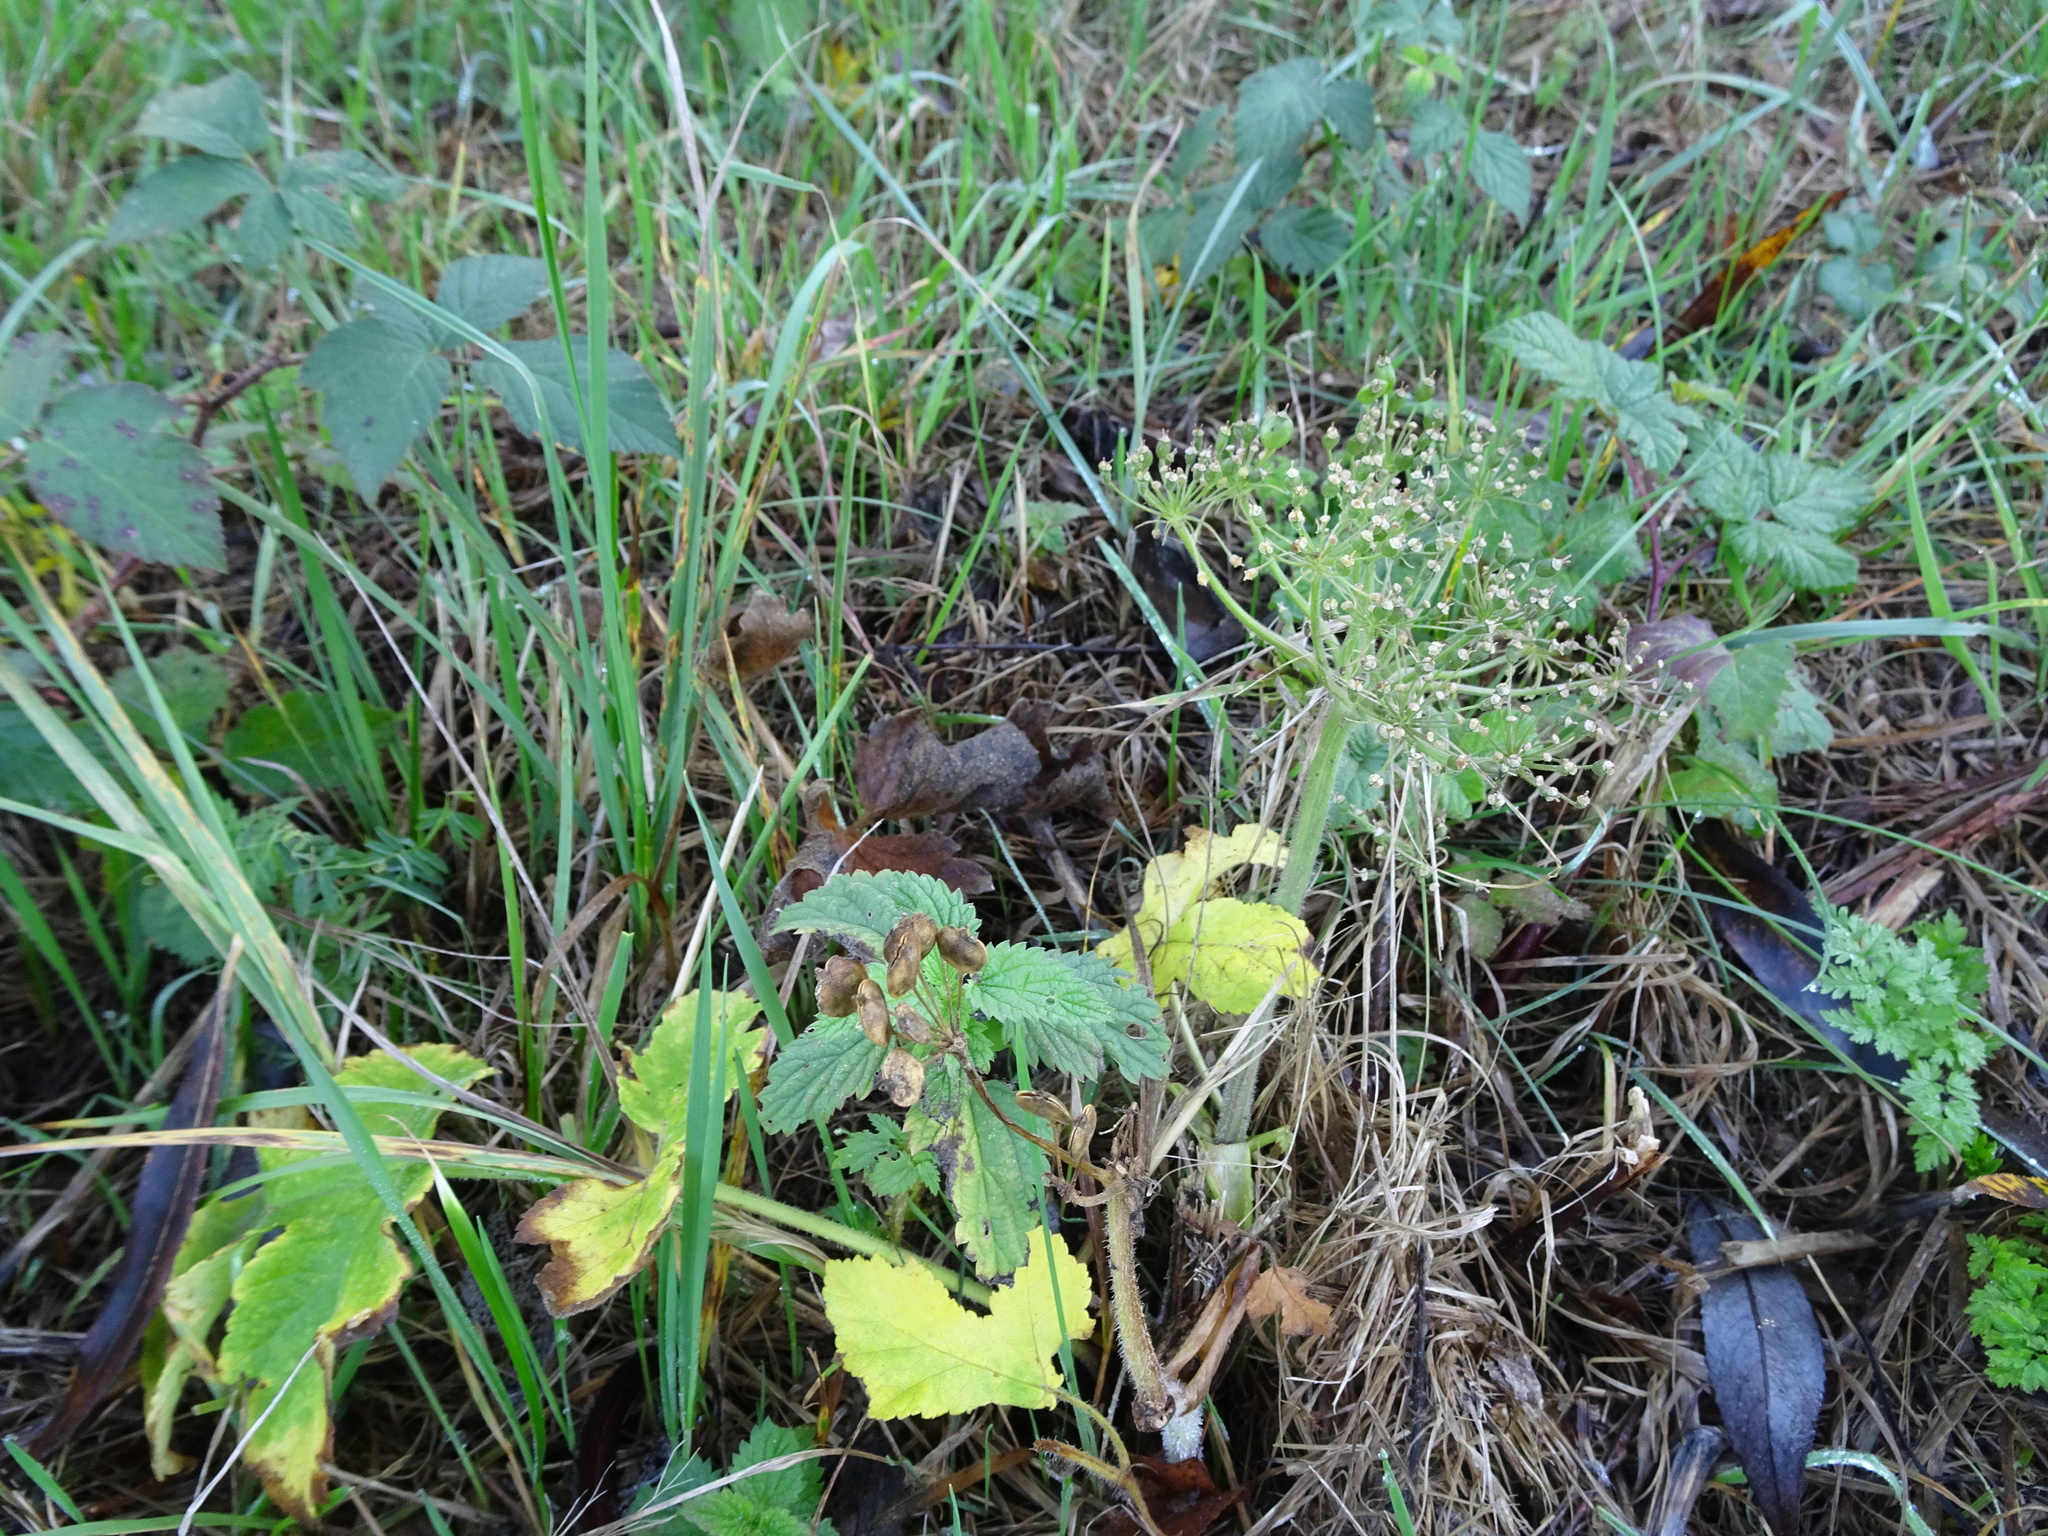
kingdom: Plantae
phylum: Tracheophyta
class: Magnoliopsida
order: Apiales
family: Apiaceae
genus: Heracleum
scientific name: Heracleum sphondylium
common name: Hogweed
